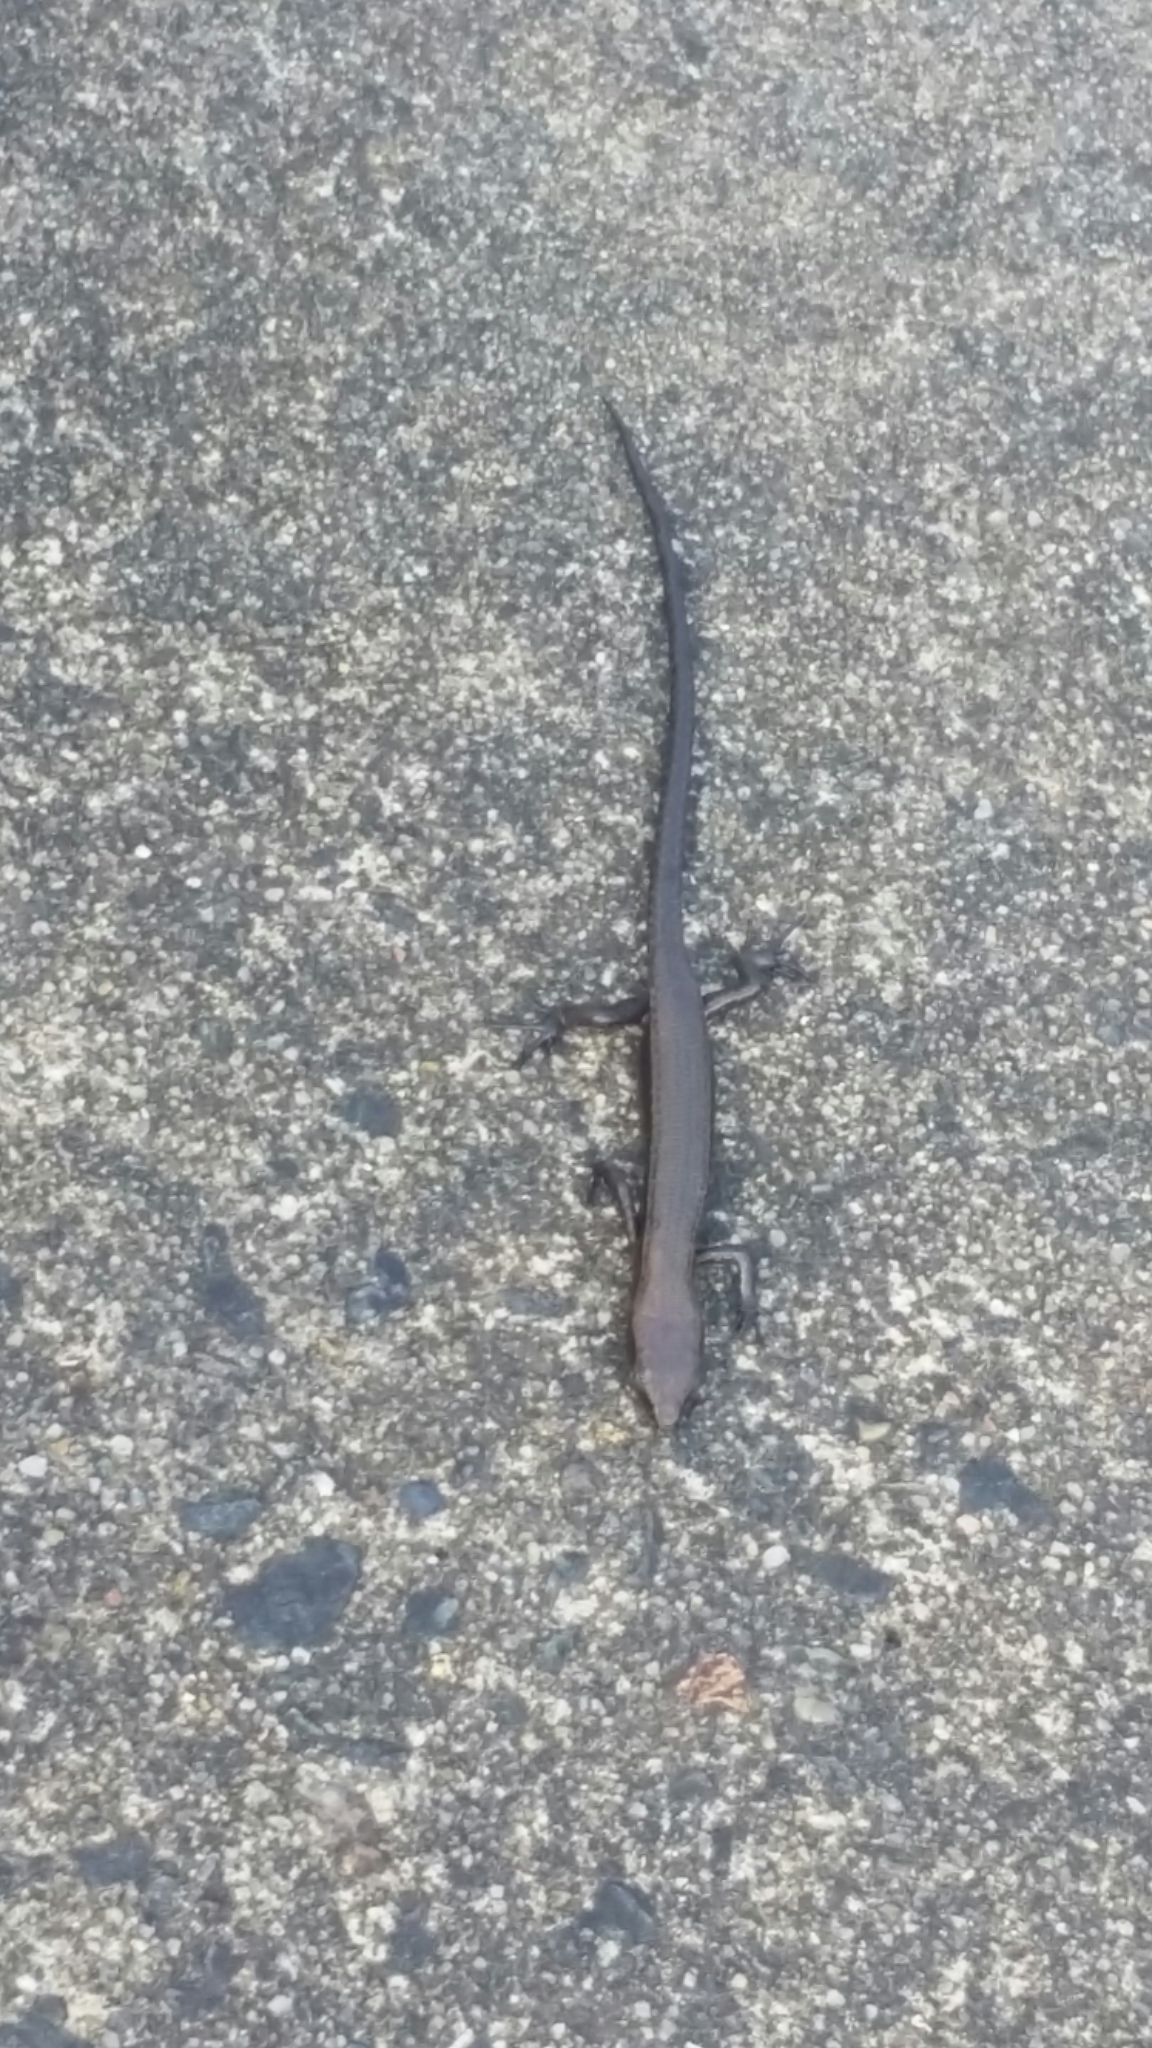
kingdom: Animalia
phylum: Chordata
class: Squamata
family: Scincidae
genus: Lampropholis
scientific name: Lampropholis delicata
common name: Plague skink
